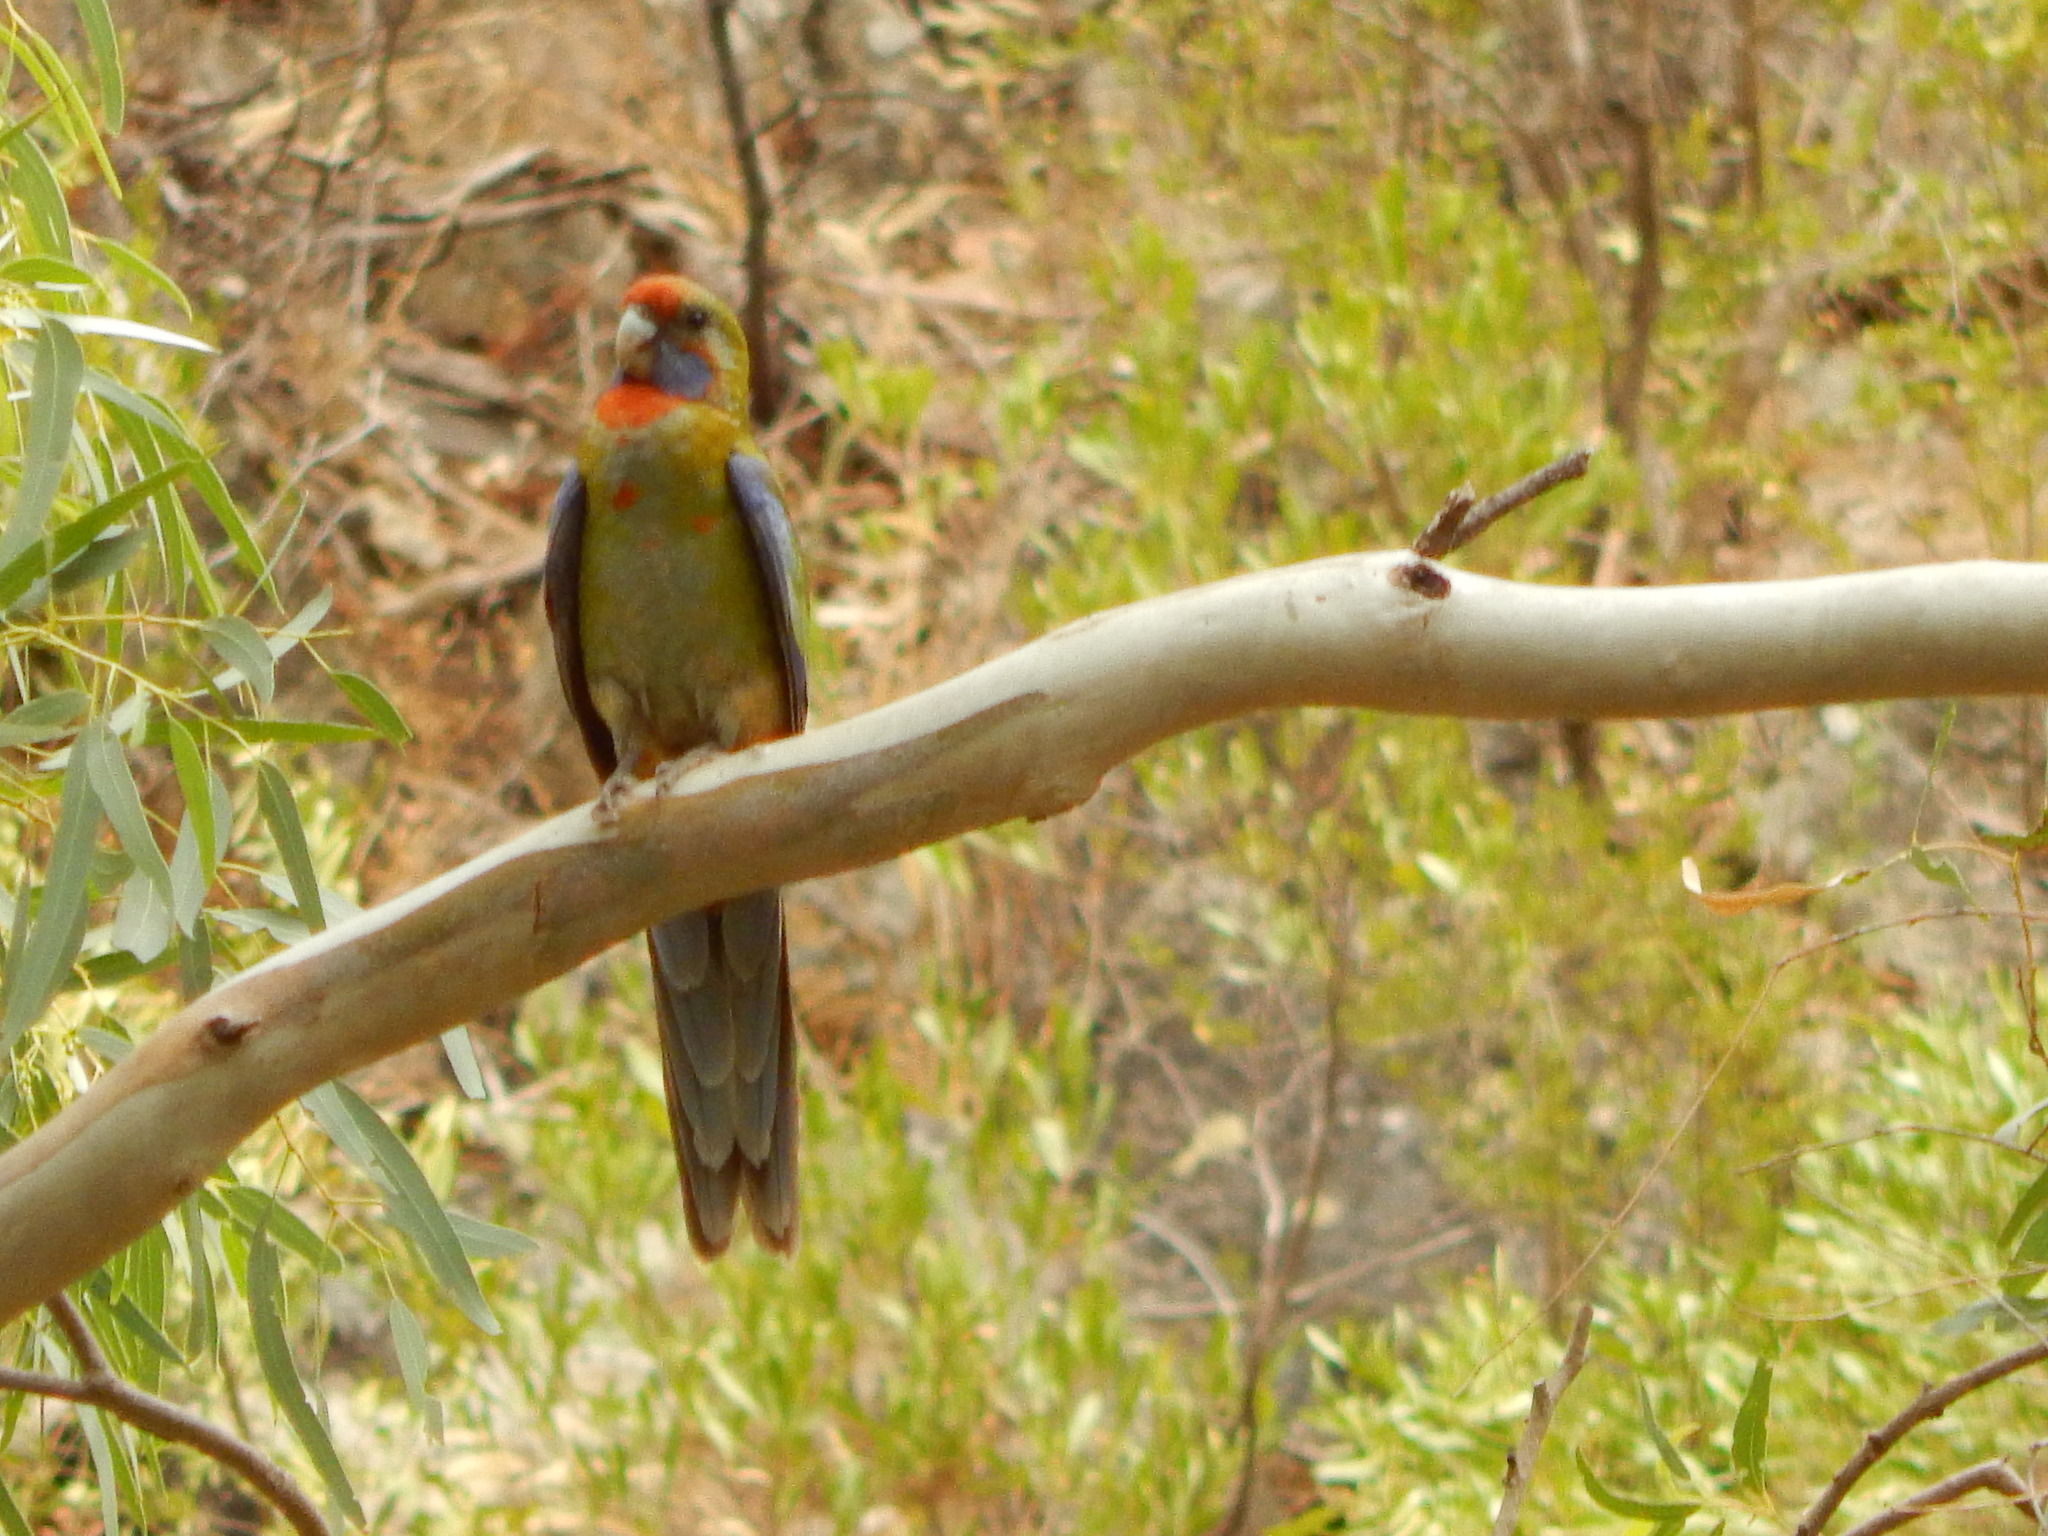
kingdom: Animalia
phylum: Chordata
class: Aves
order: Psittaciformes
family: Psittacidae
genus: Platycercus
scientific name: Platycercus elegans
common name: Crimson rosella
